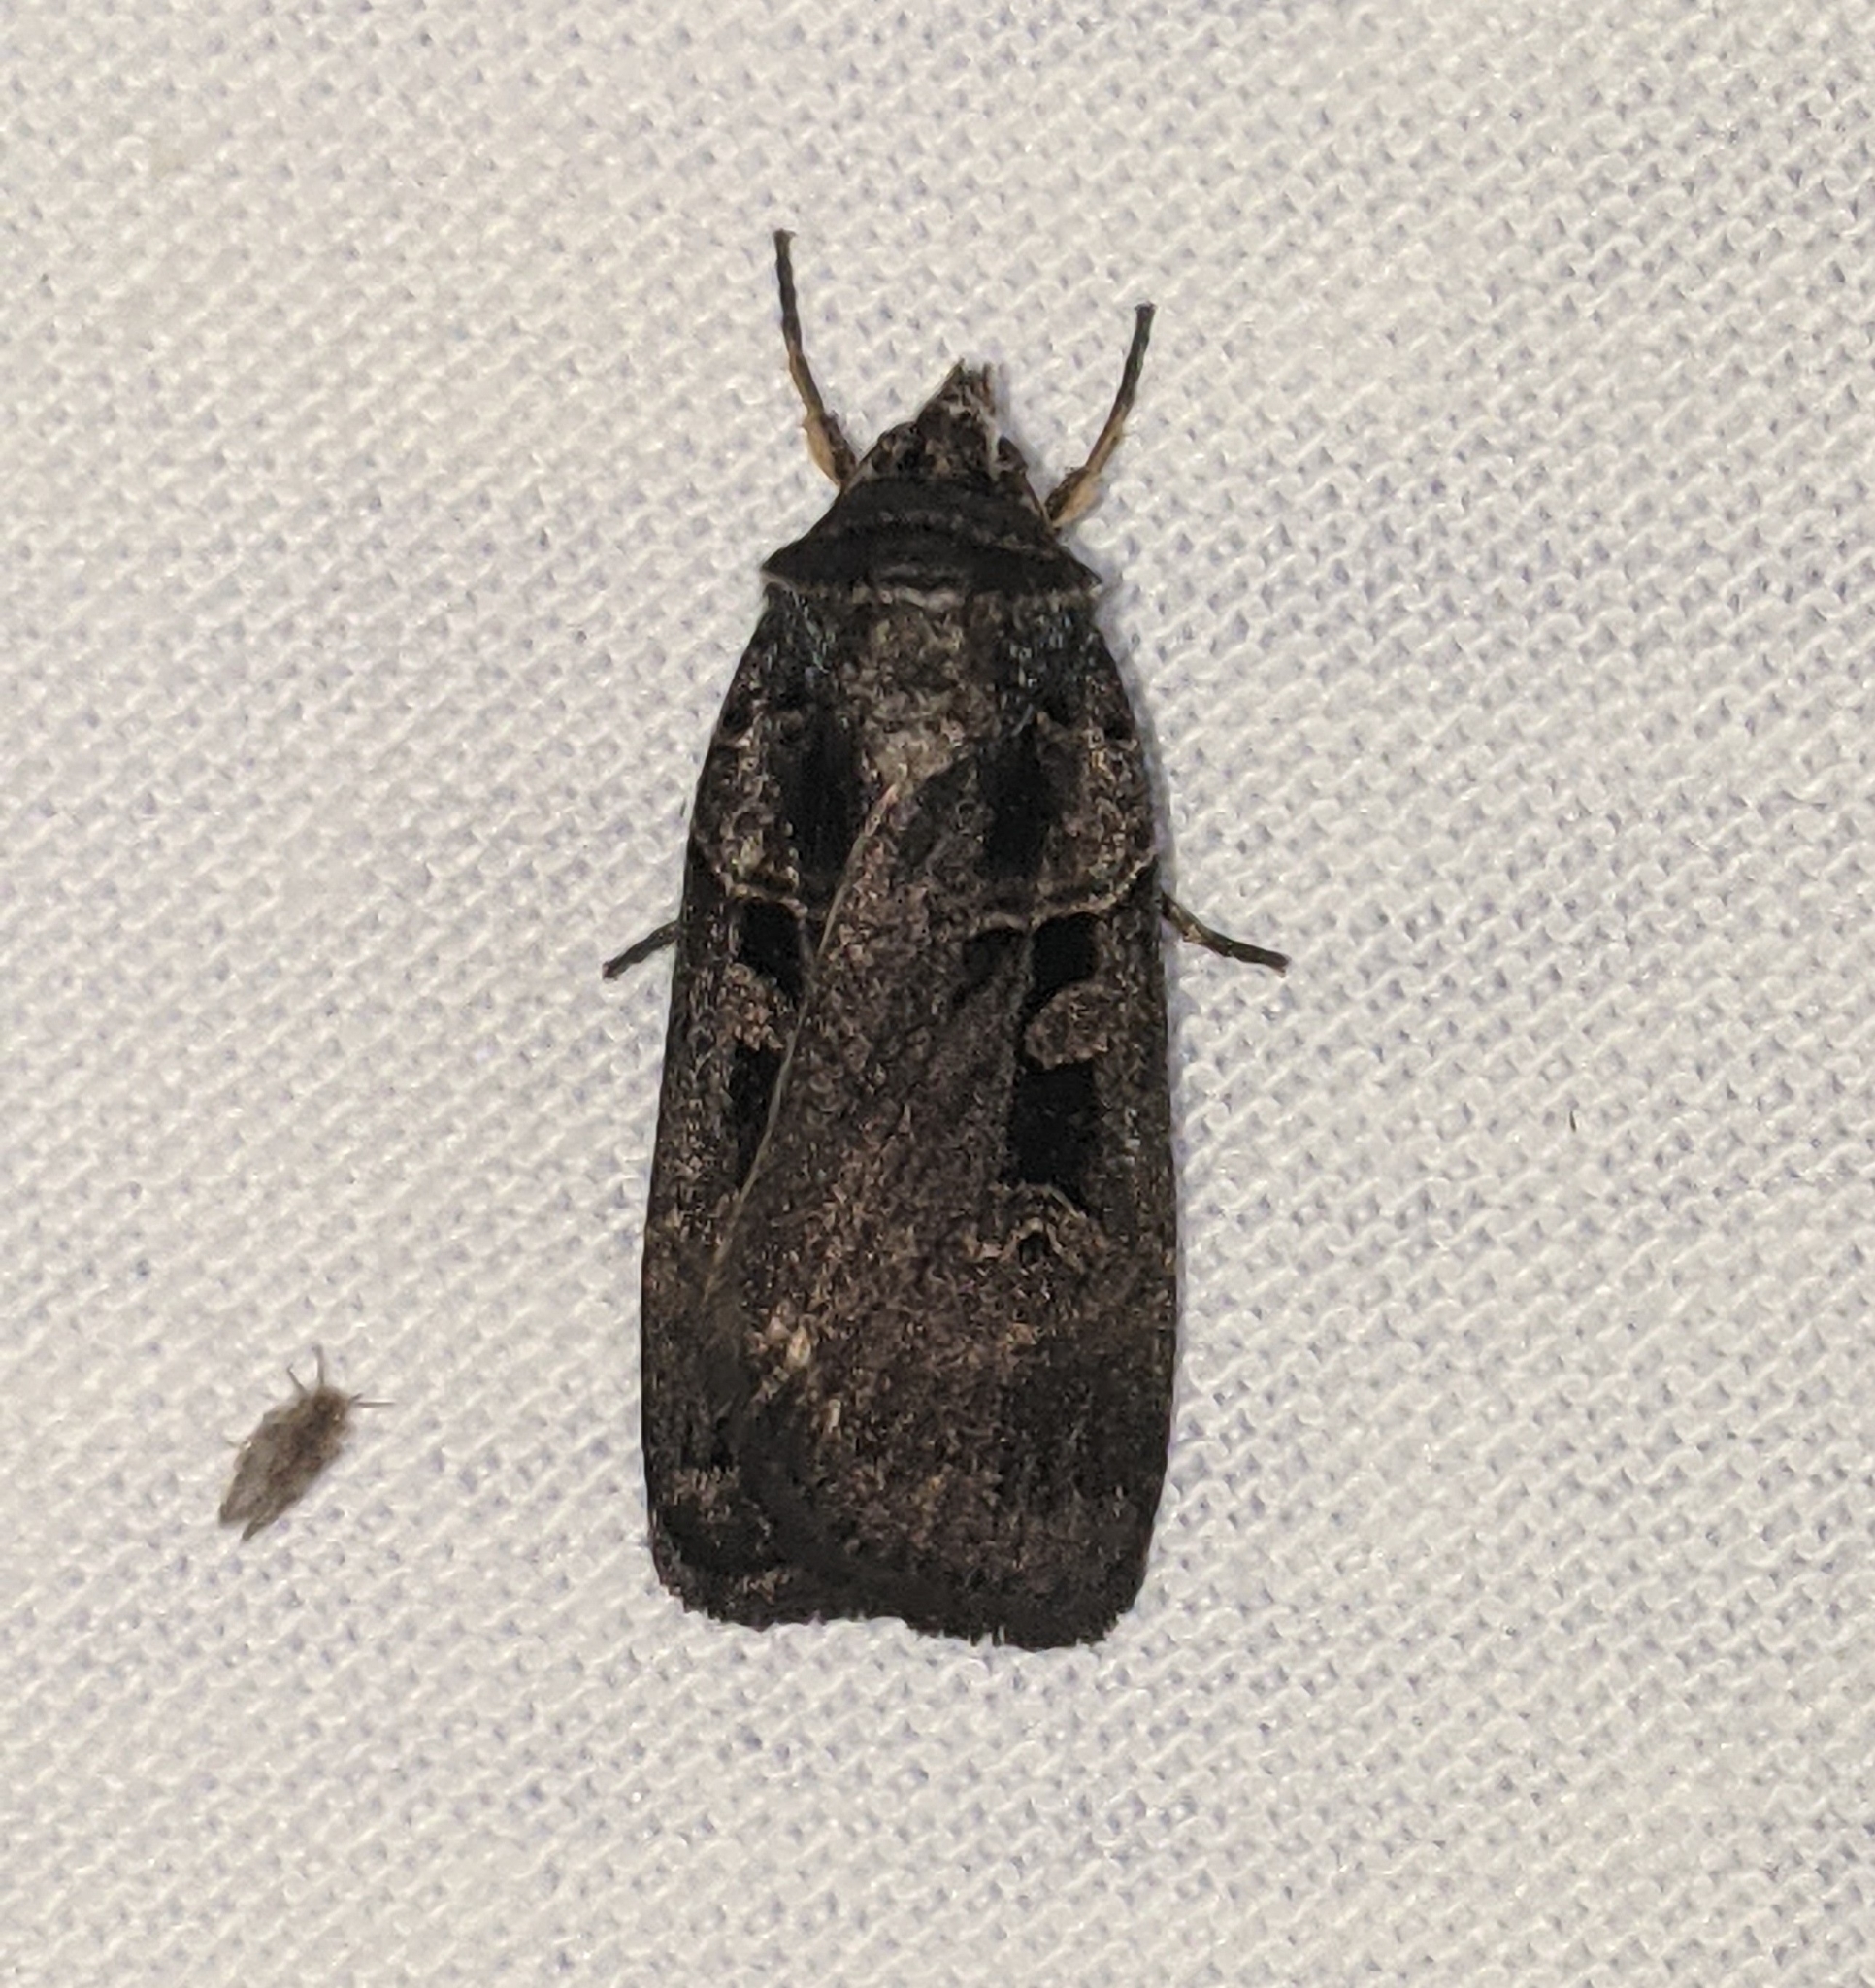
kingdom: Animalia
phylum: Arthropoda
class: Insecta
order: Lepidoptera
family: Noctuidae
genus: Pseudohermonassa
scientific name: Pseudohermonassa tenuicula
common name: Morrison's sooty dart
